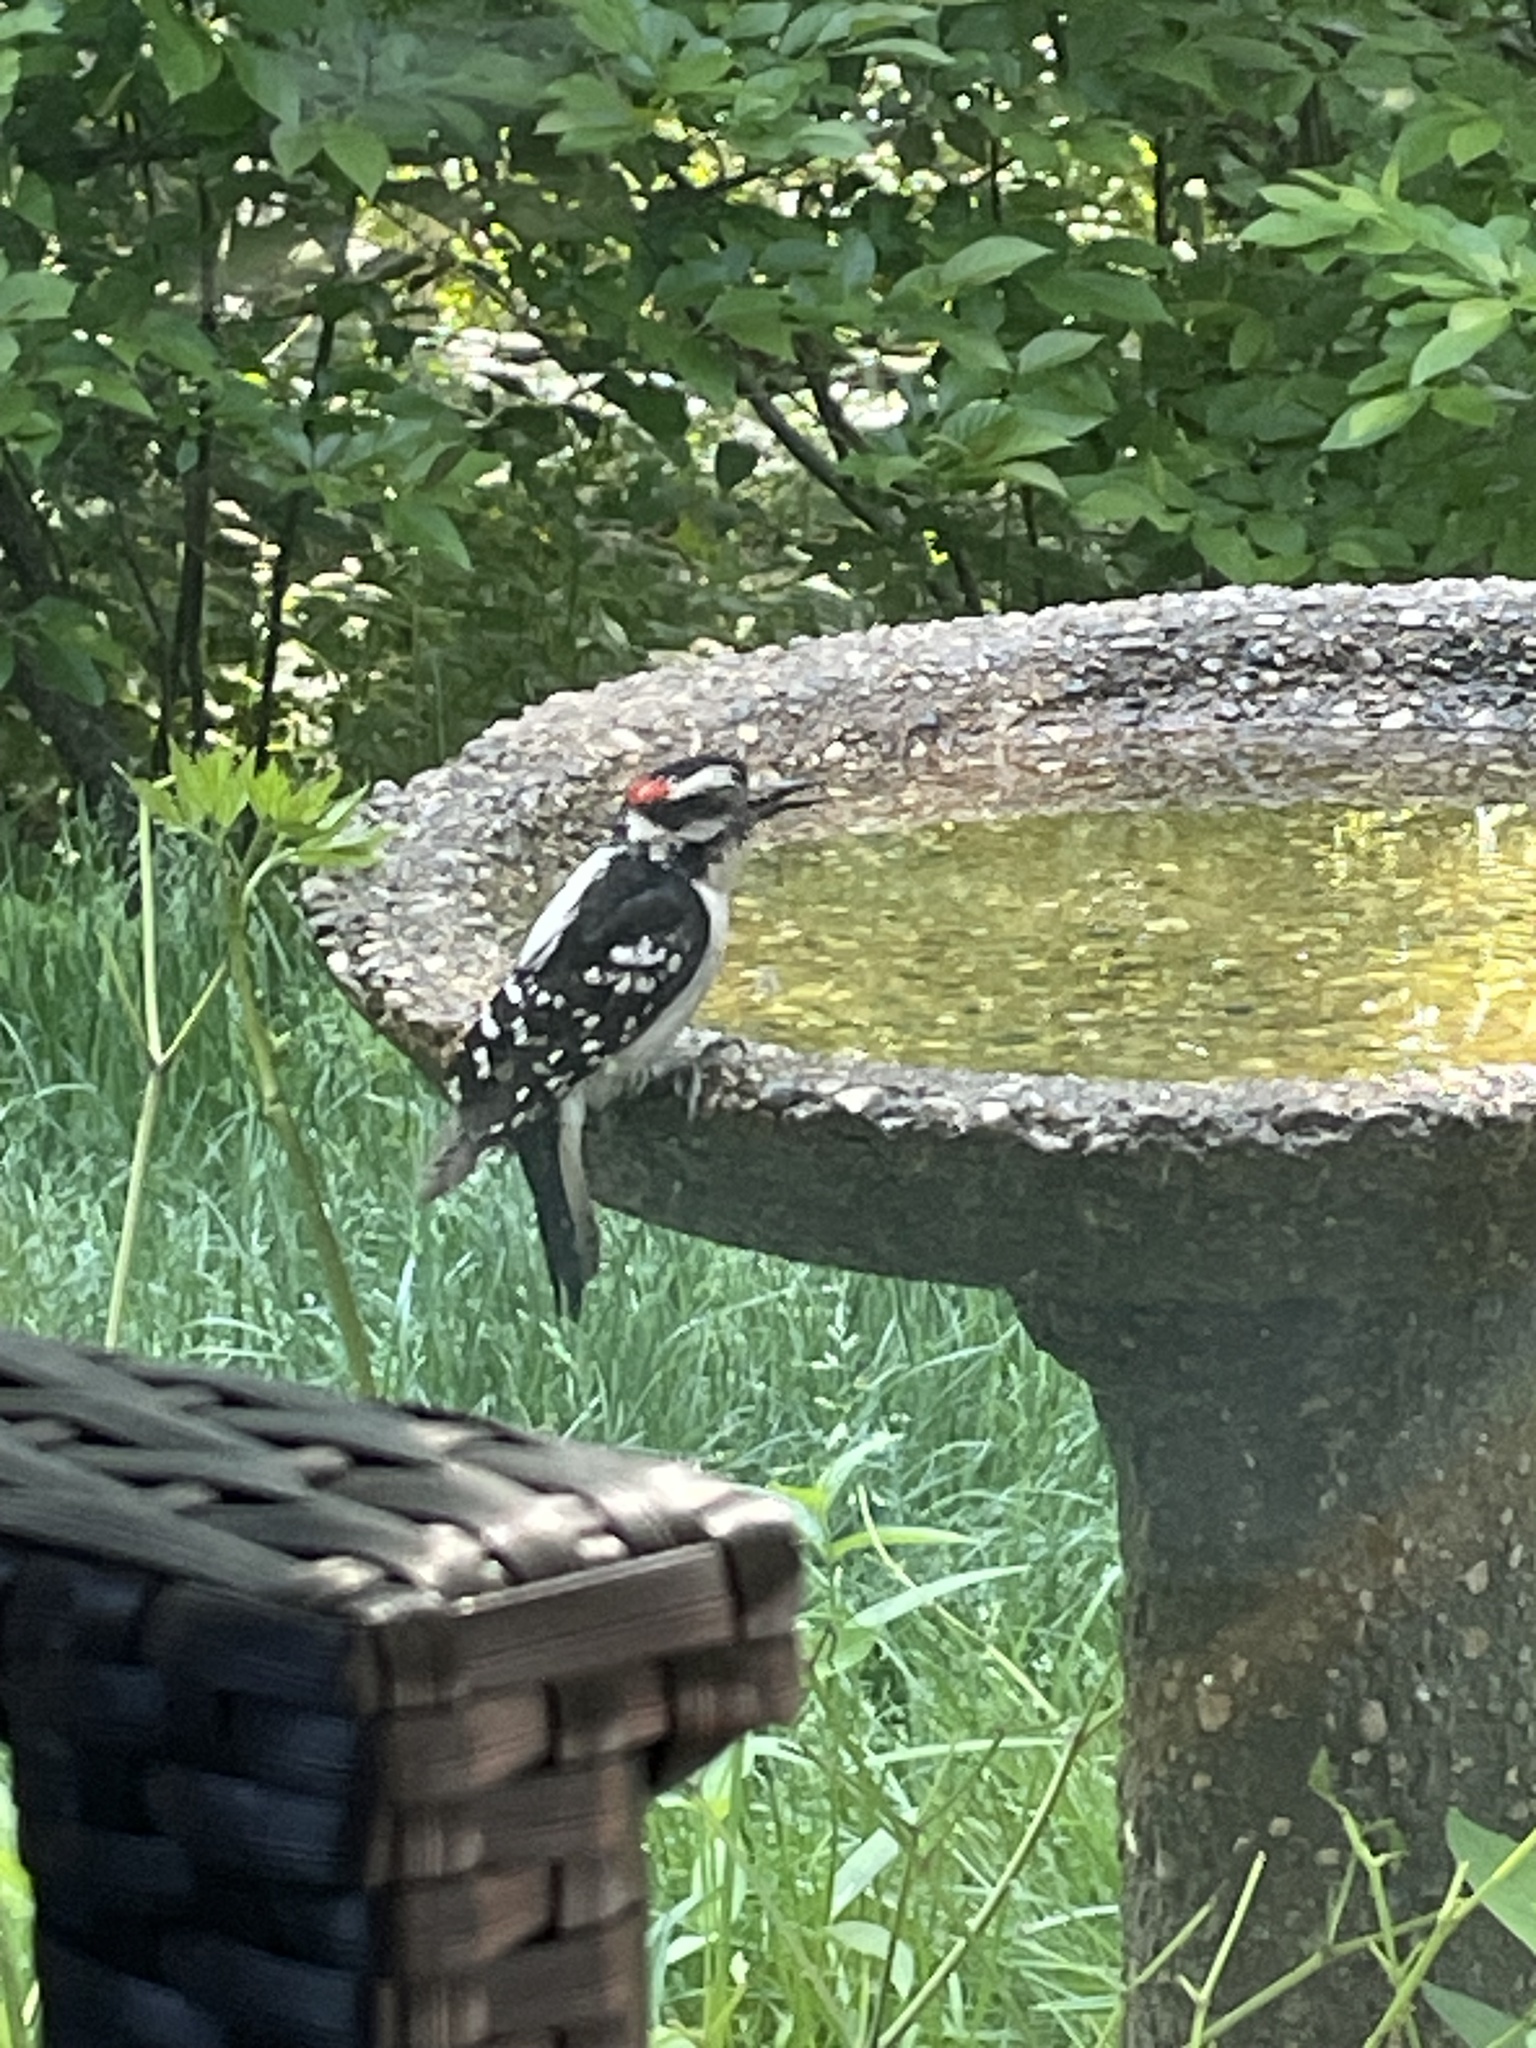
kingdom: Animalia
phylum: Chordata
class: Aves
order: Piciformes
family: Picidae
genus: Dryobates
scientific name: Dryobates pubescens
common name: Downy woodpecker
